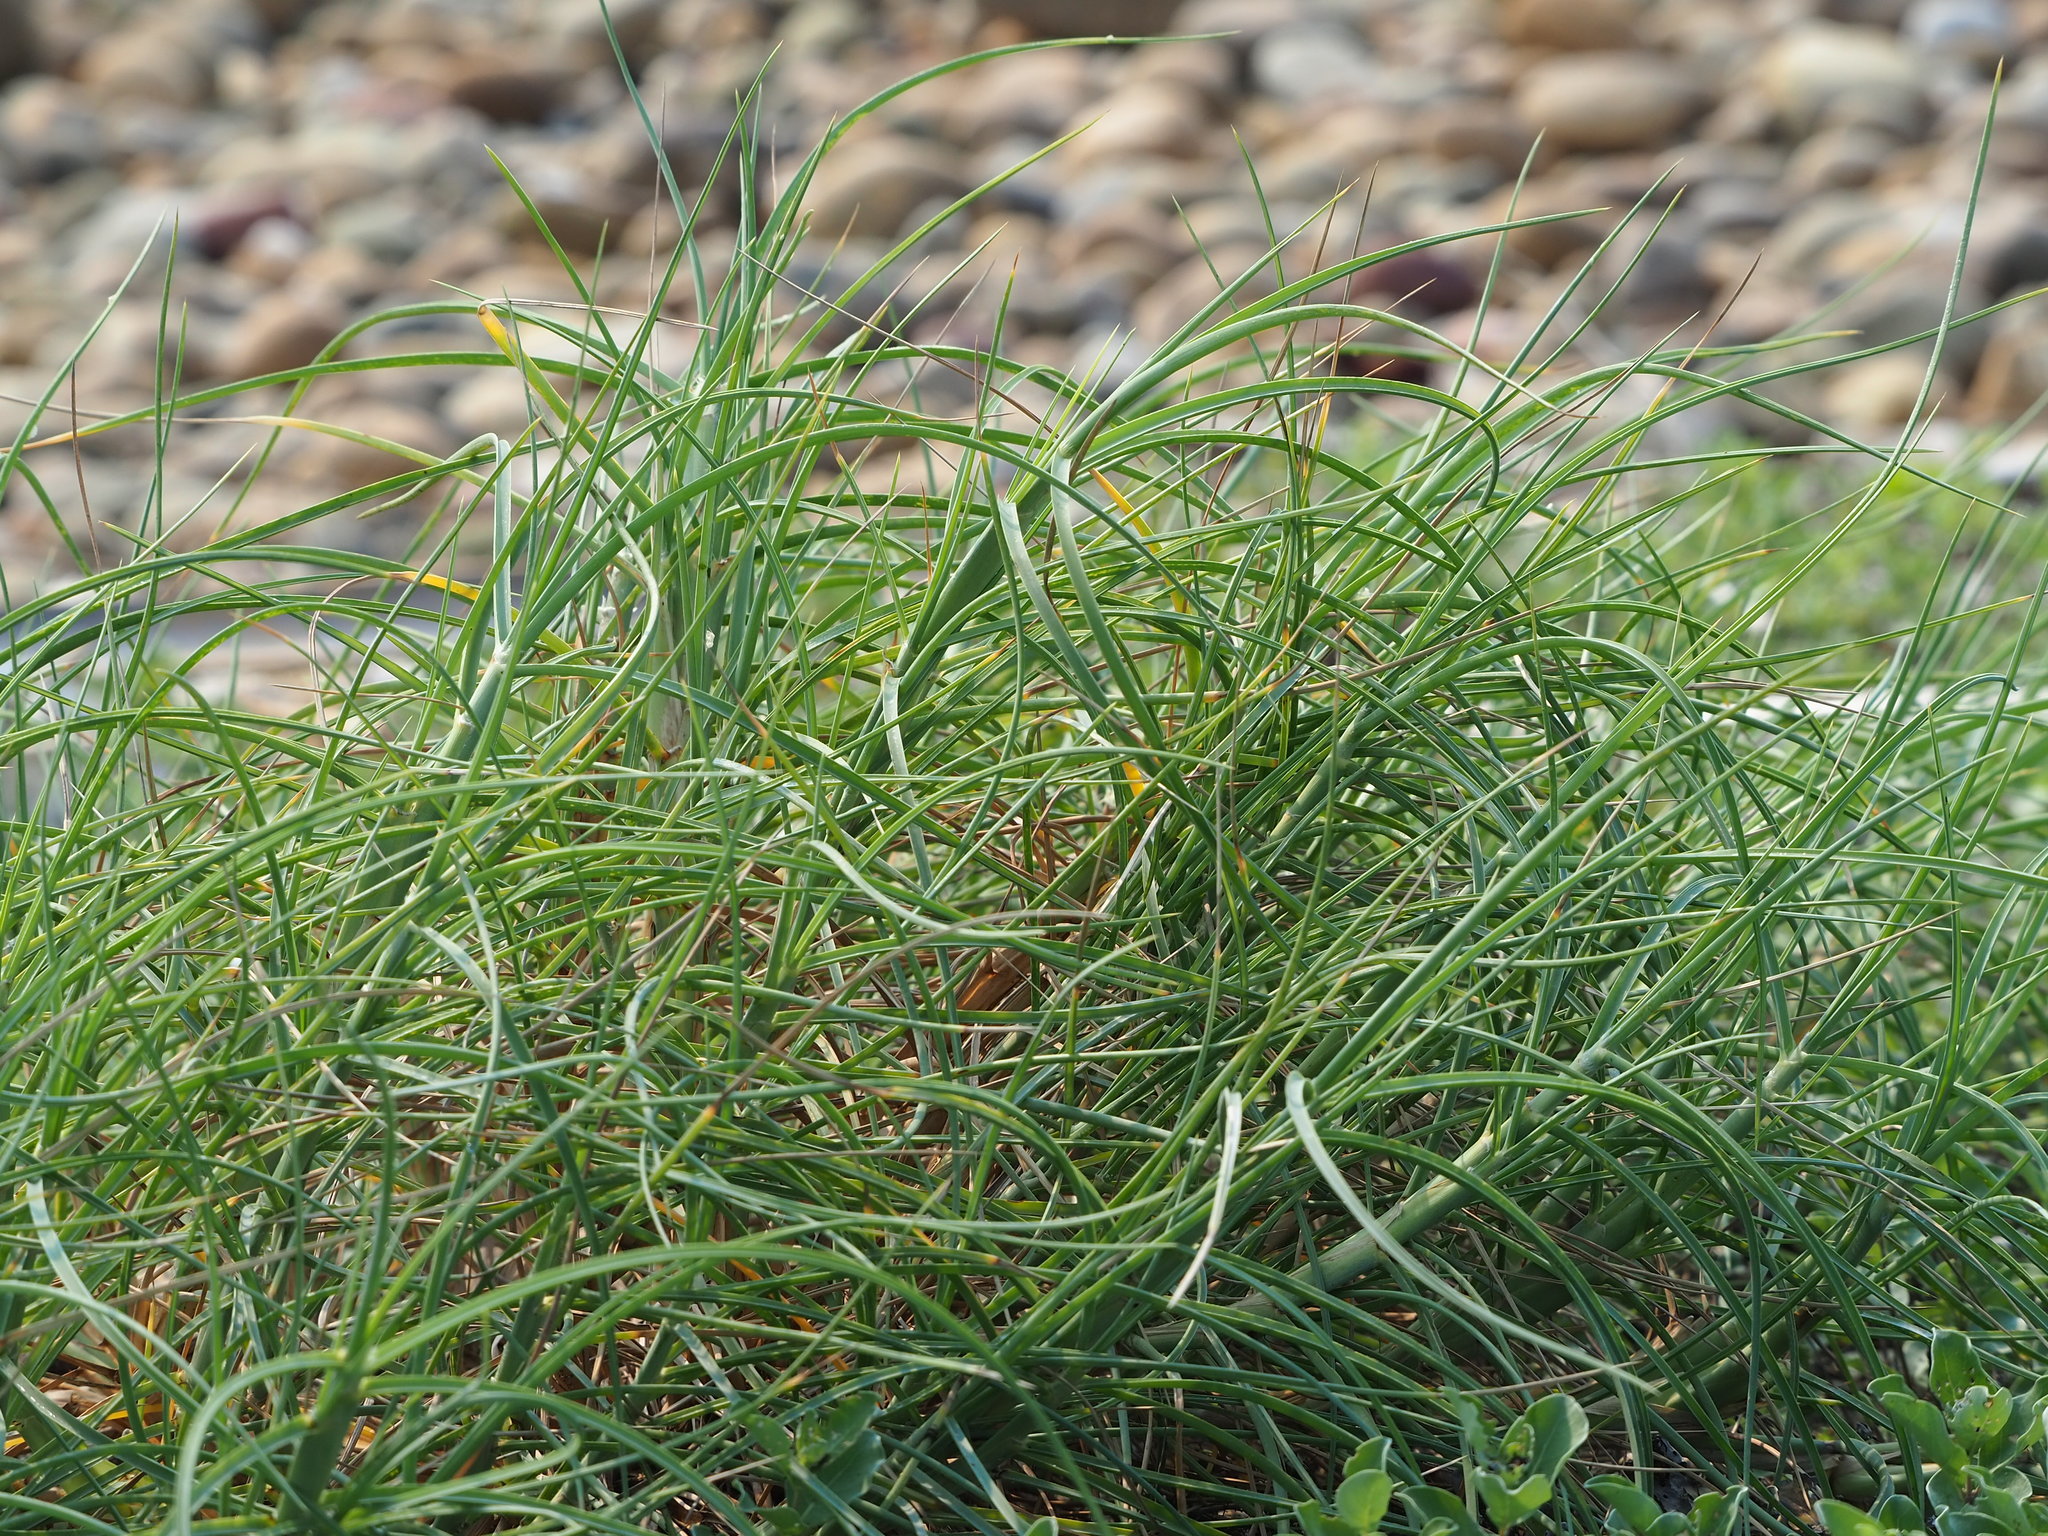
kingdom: Plantae
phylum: Tracheophyta
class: Liliopsida
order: Poales
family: Poaceae
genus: Spinifex
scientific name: Spinifex littoreus
